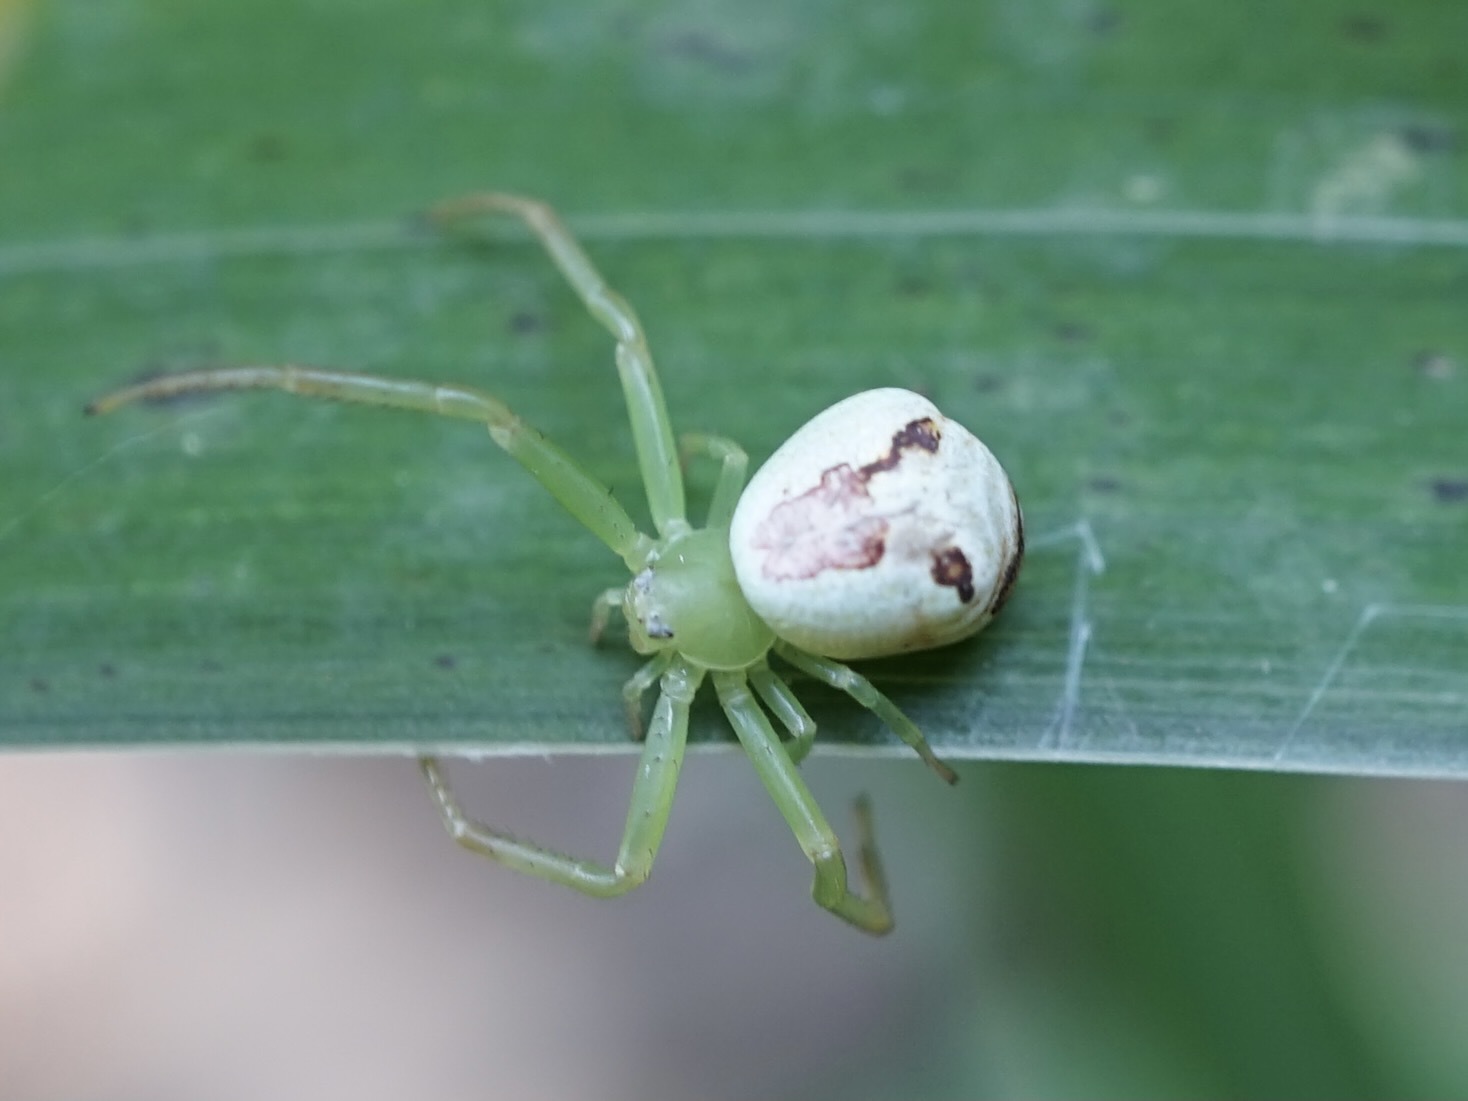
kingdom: Animalia
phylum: Arthropoda
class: Arachnida
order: Araneae
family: Thomisidae
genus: Ebrechtella
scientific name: Ebrechtella tricuspidata
